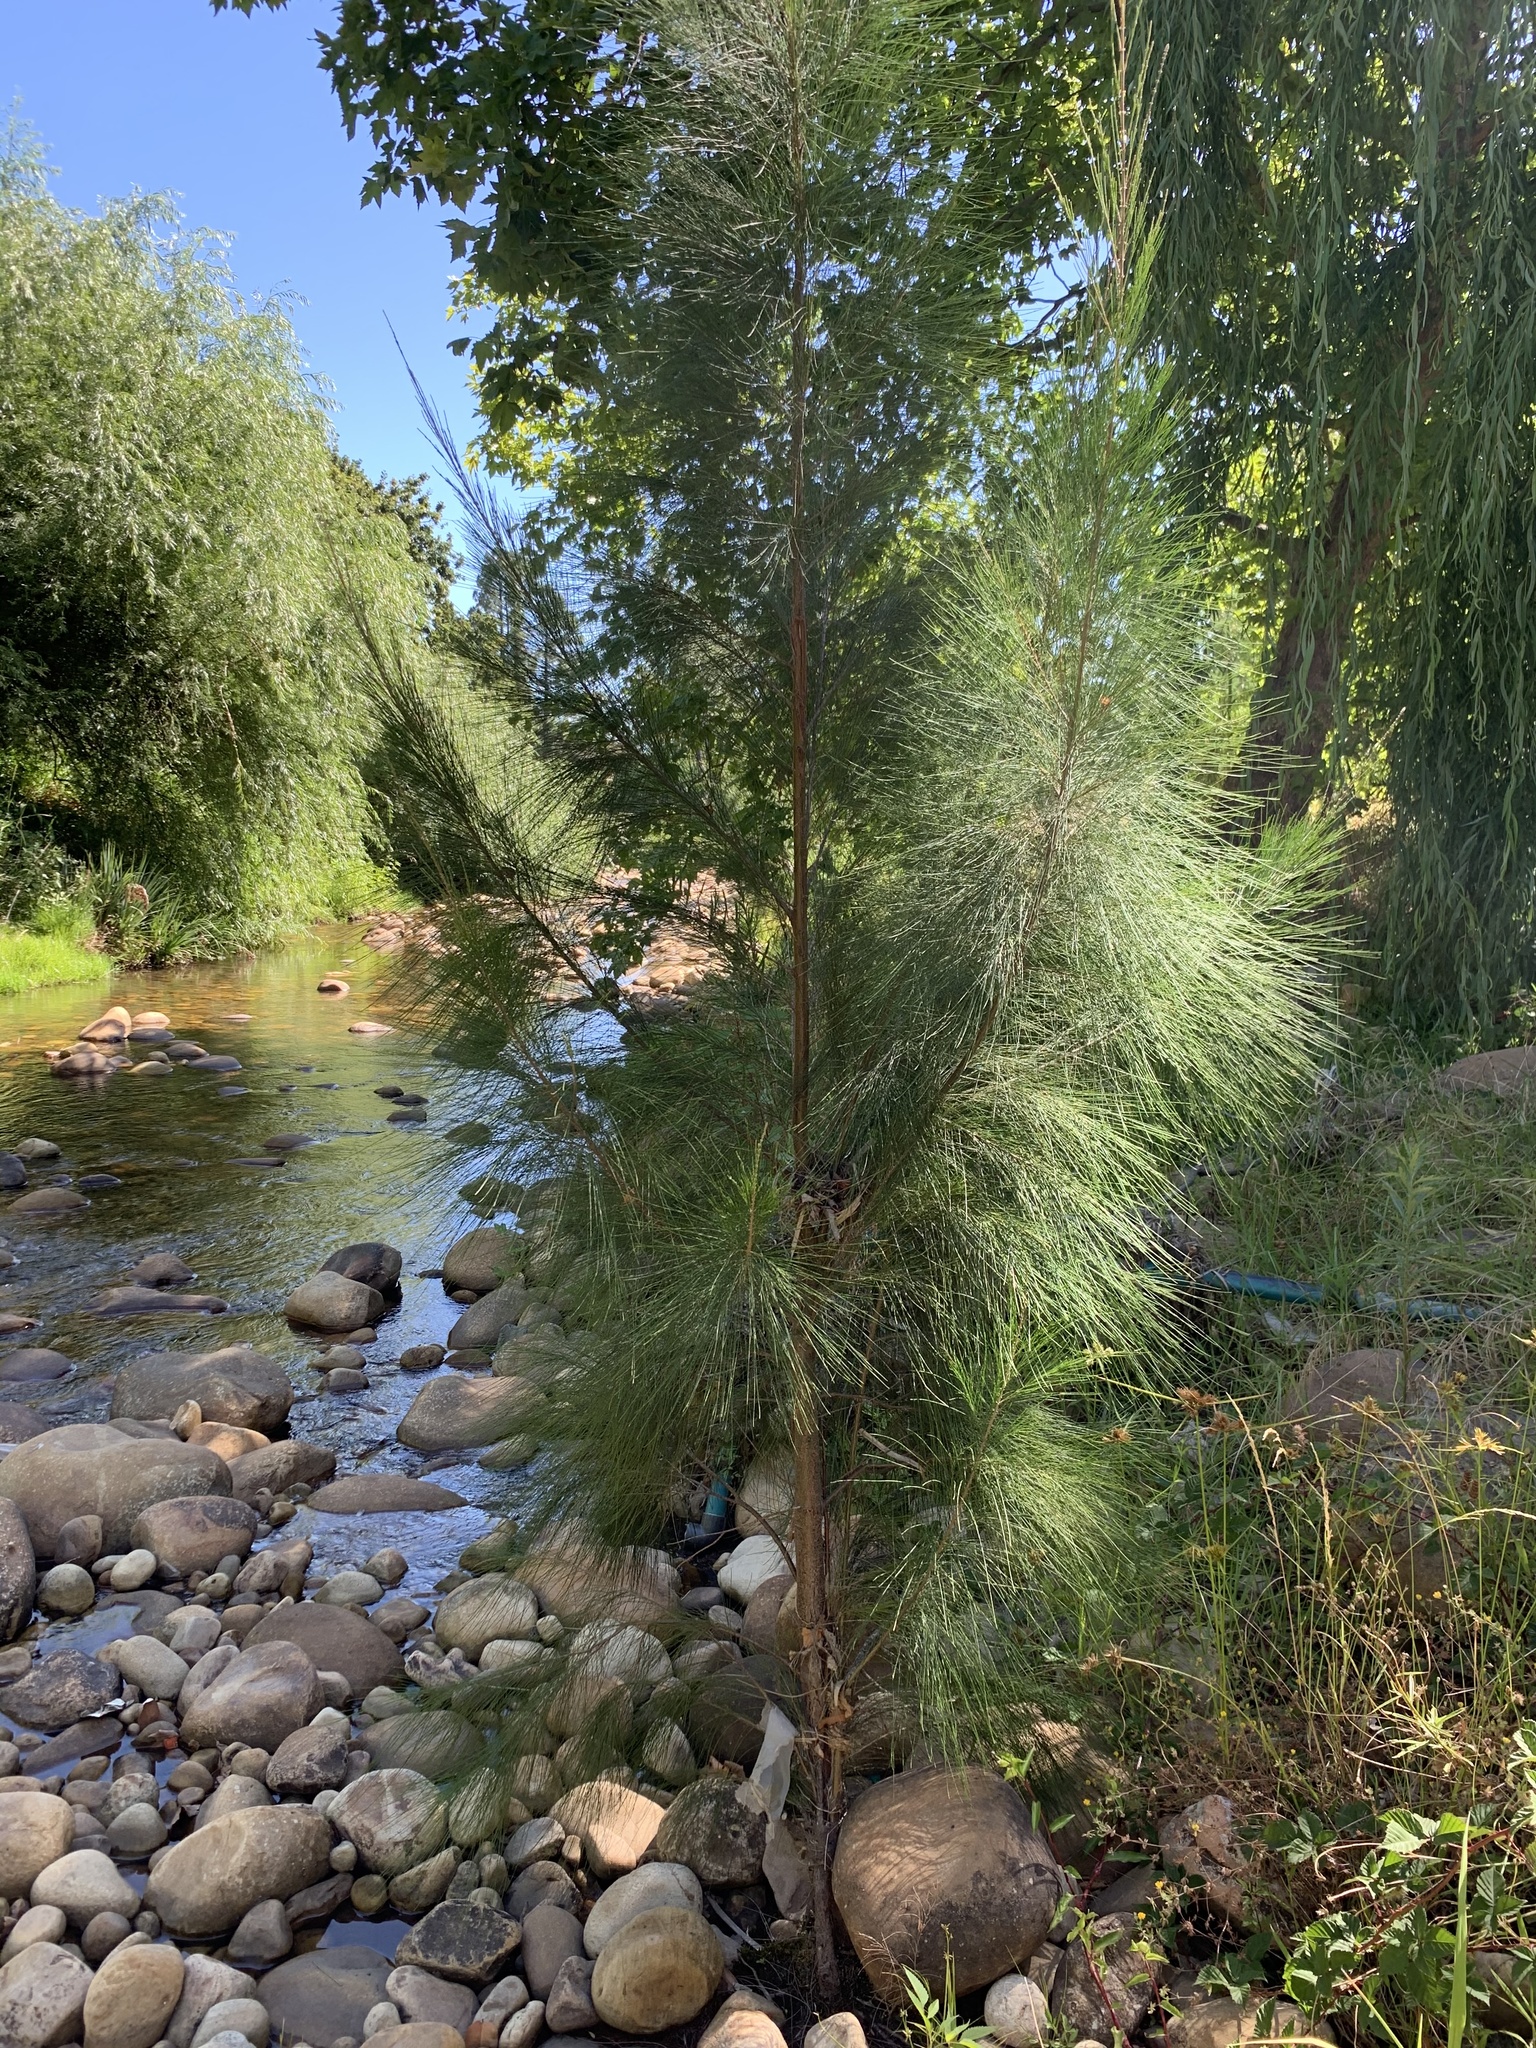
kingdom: Plantae
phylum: Tracheophyta
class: Magnoliopsida
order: Fagales
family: Casuarinaceae
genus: Casuarina
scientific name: Casuarina cunninghamiana
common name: River sheoak
